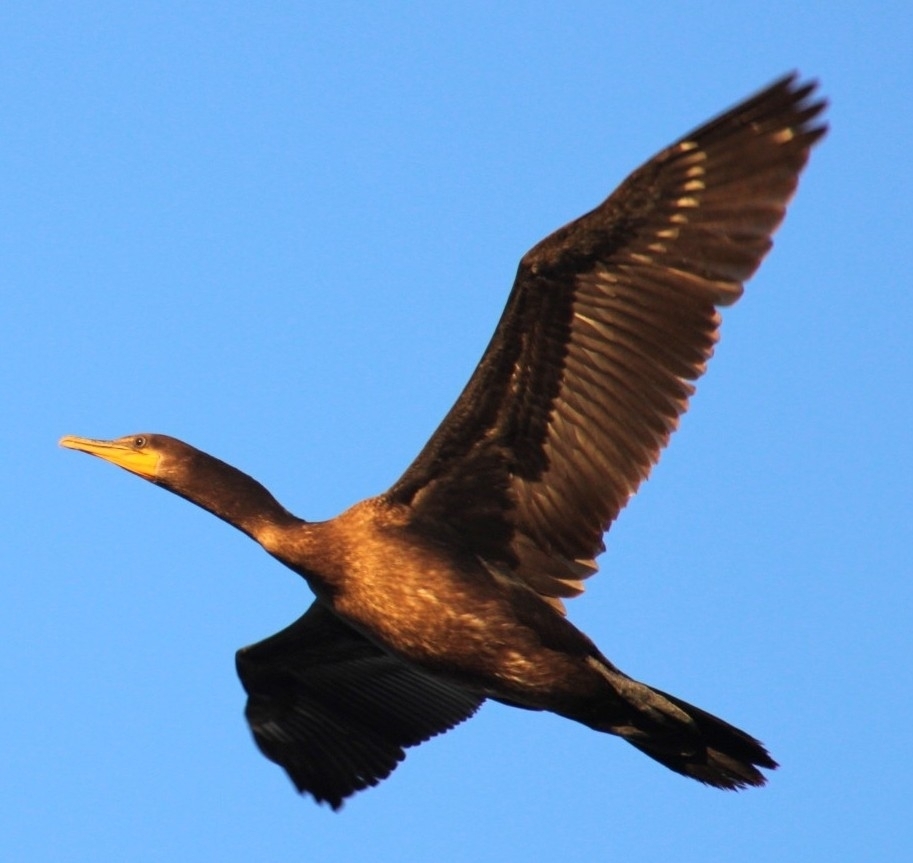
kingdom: Animalia
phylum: Chordata
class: Aves
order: Suliformes
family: Phalacrocoracidae
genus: Phalacrocorax
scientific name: Phalacrocorax auritus
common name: Double-crested cormorant
